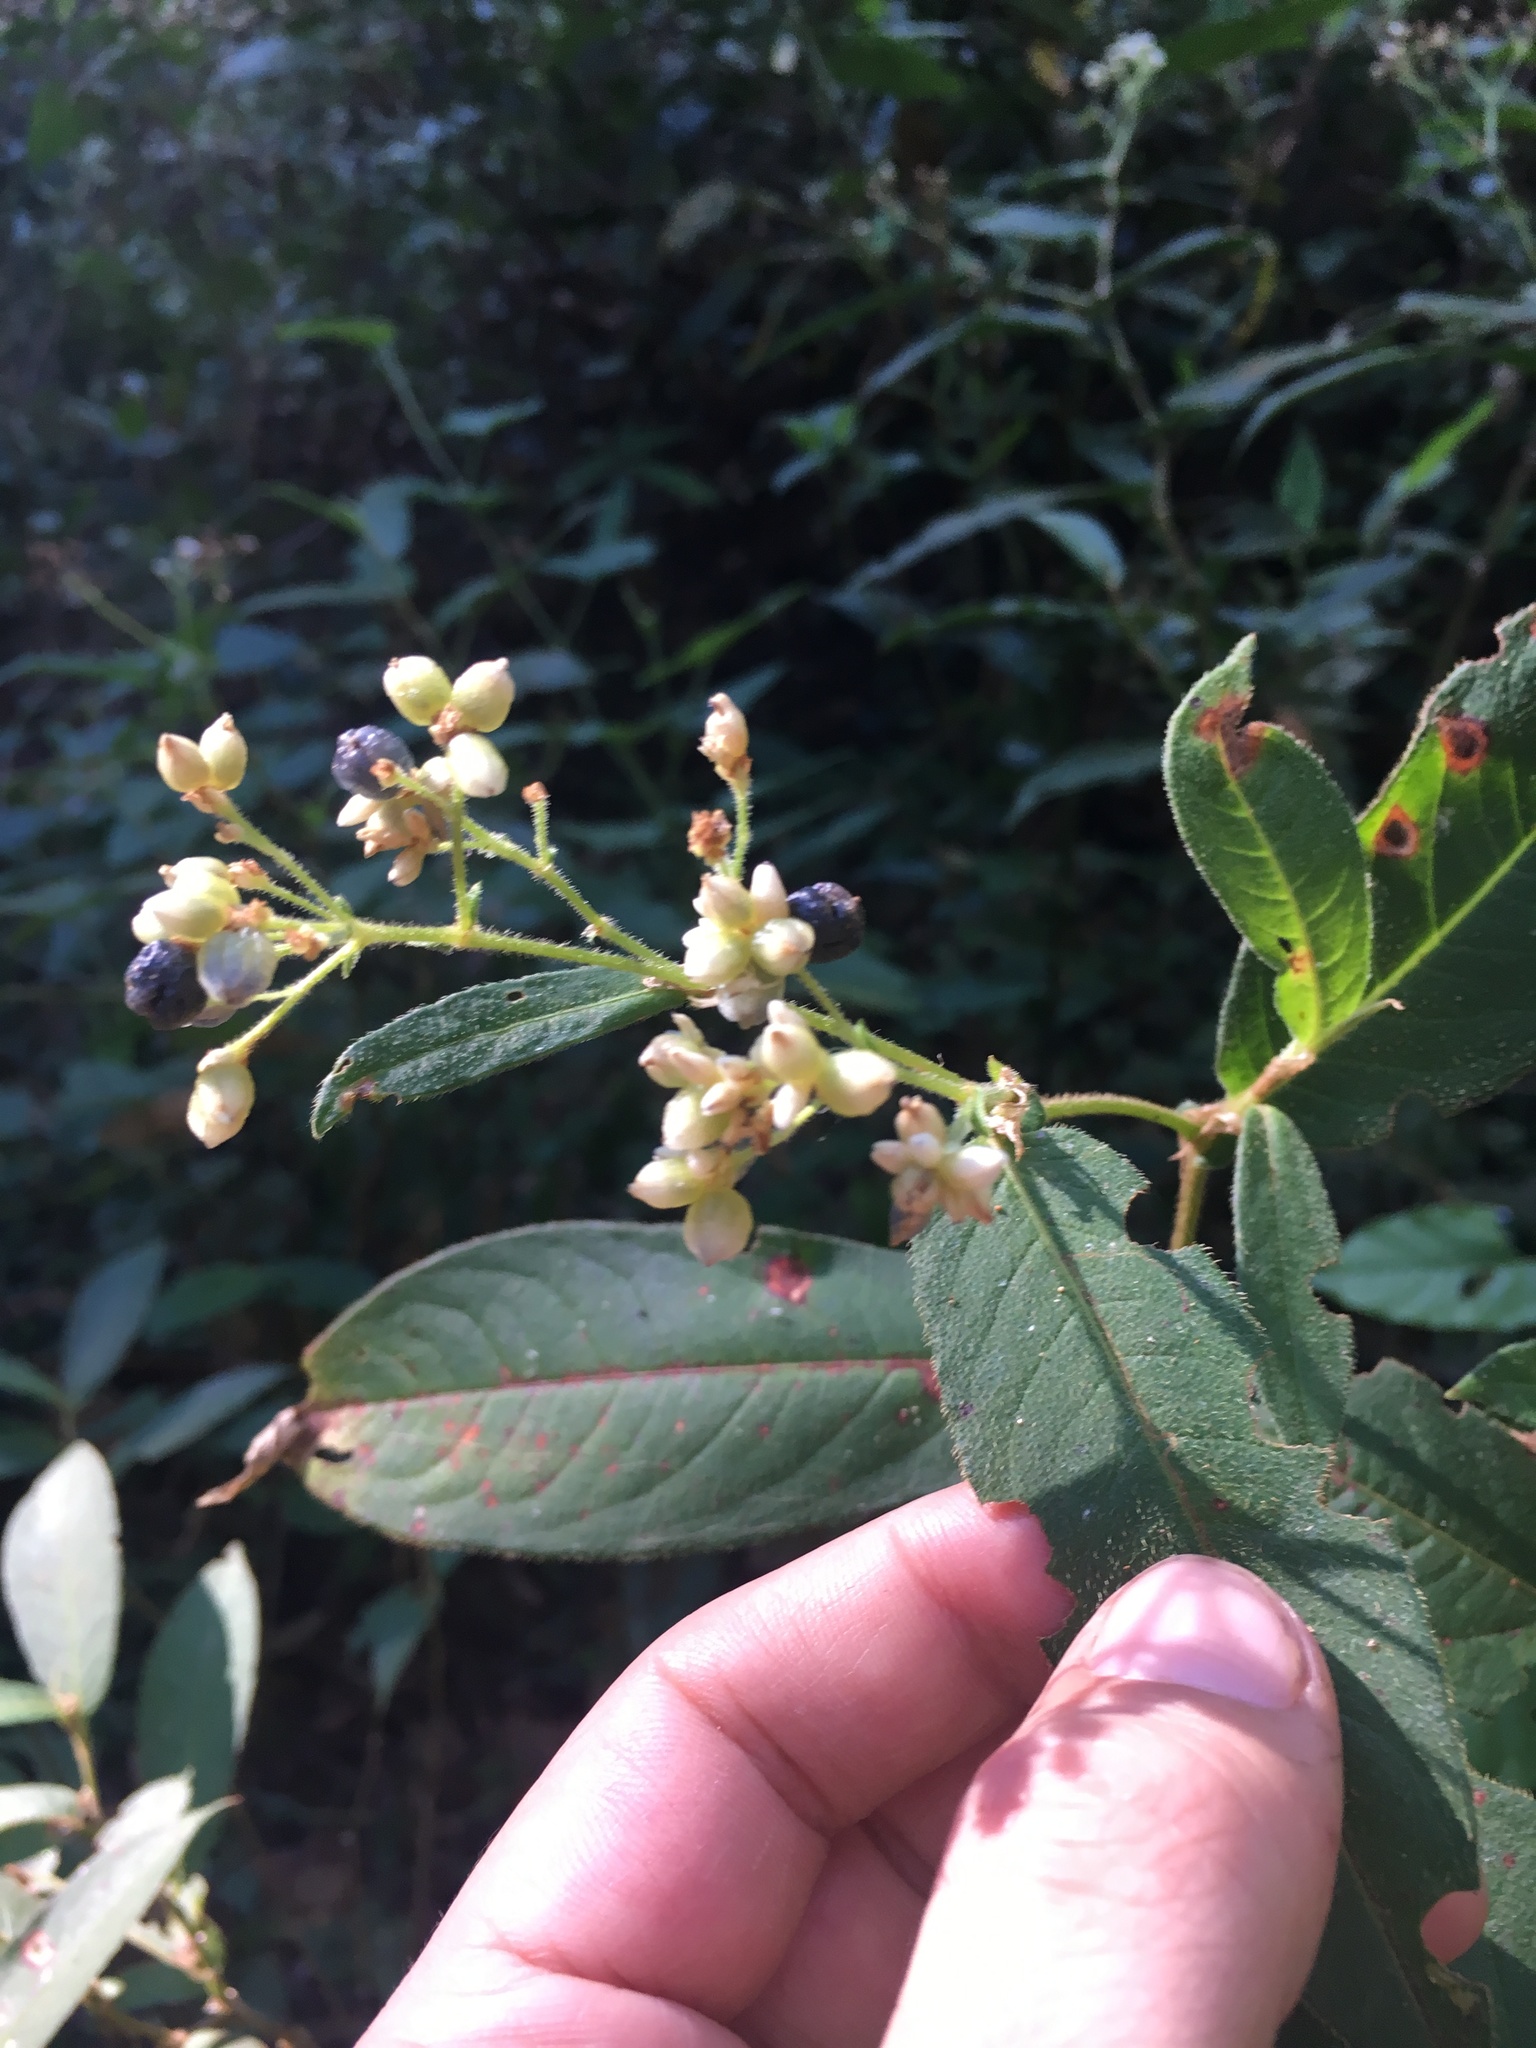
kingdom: Plantae
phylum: Tracheophyta
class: Magnoliopsida
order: Caryophyllales
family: Polygonaceae
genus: Persicaria
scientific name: Persicaria chinensis
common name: Chinese knotweed
